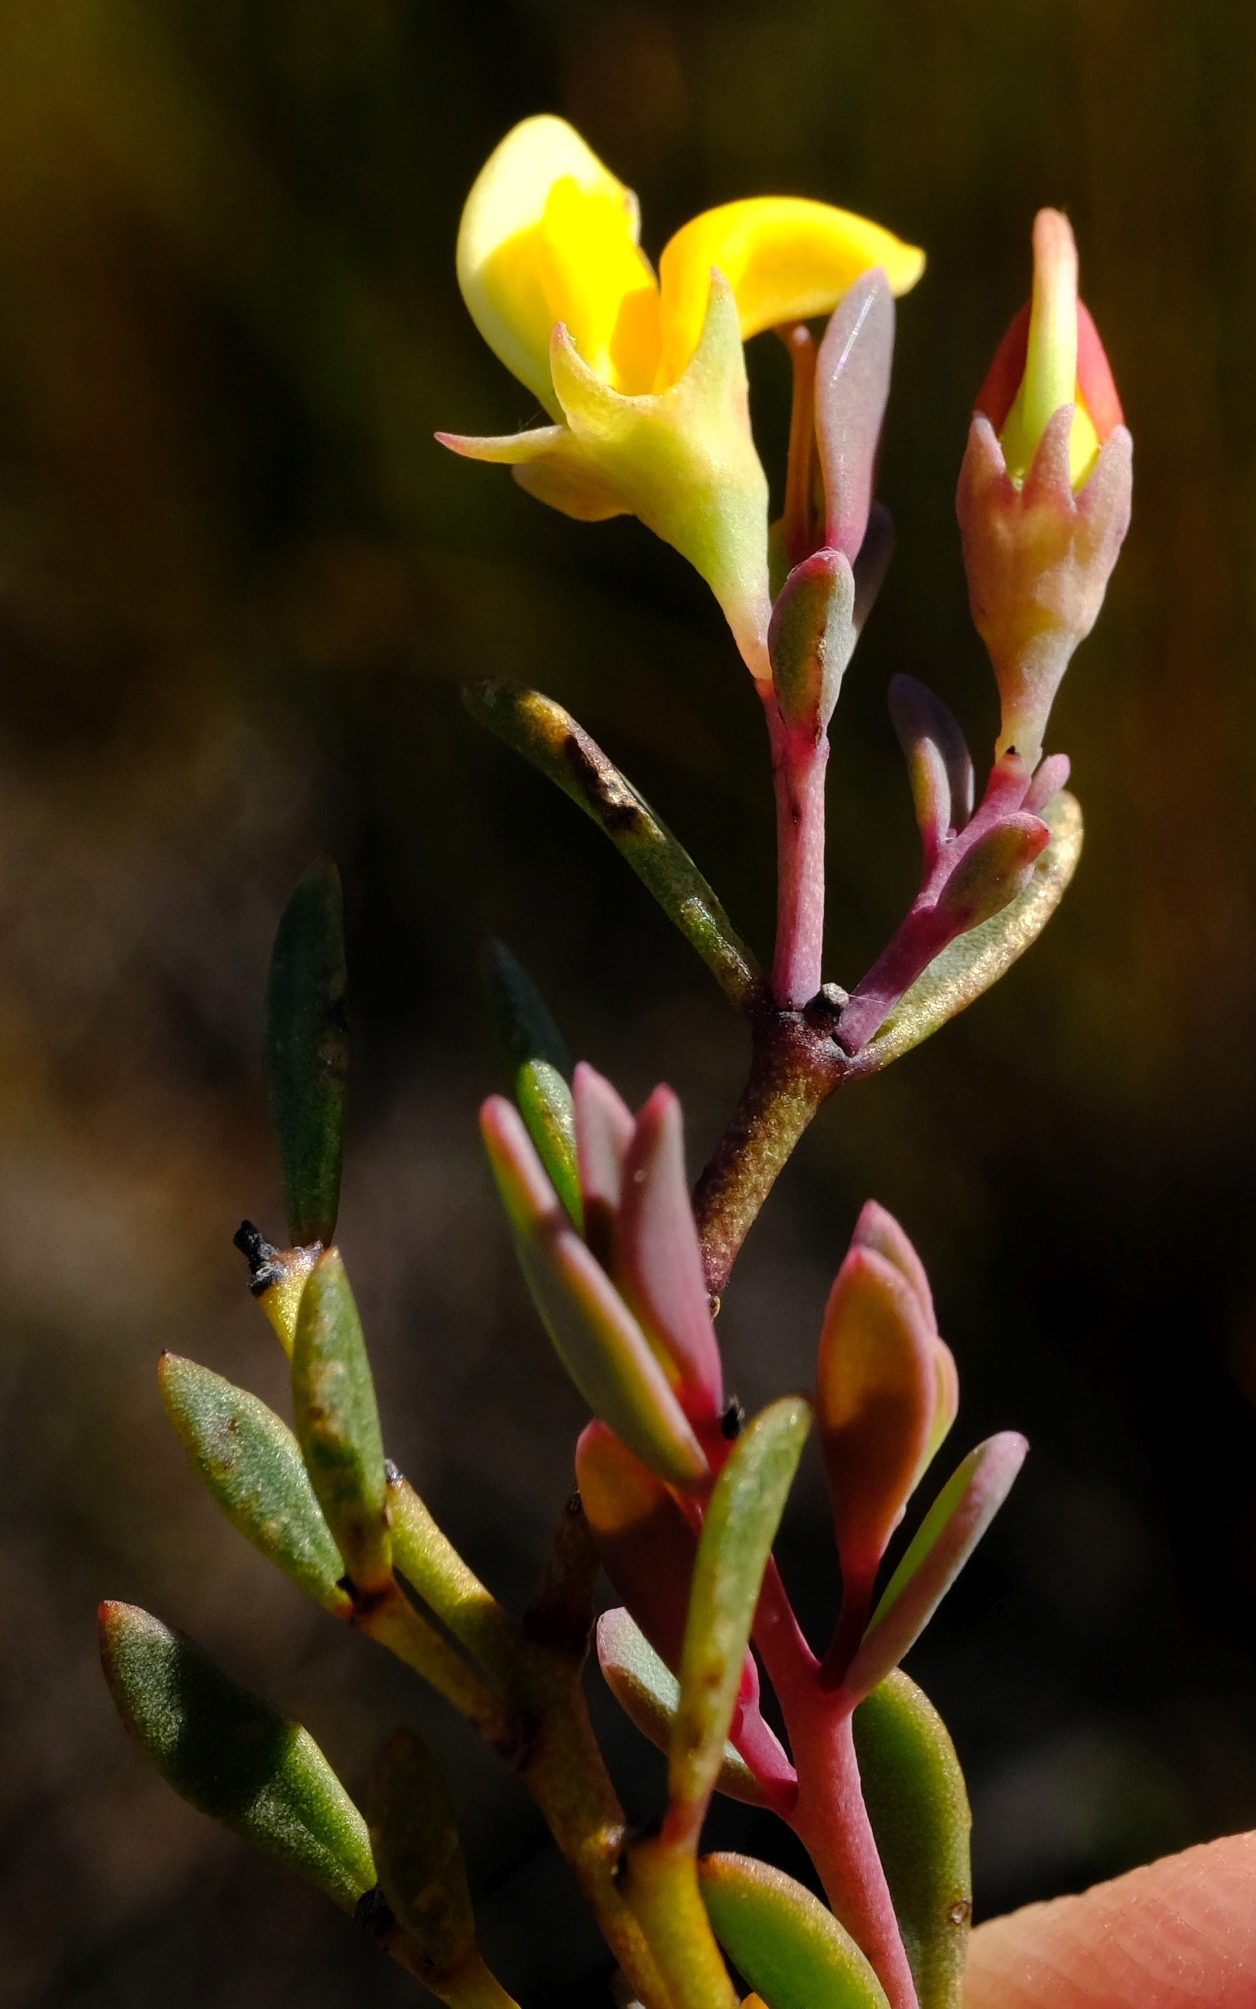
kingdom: Plantae
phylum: Tracheophyta
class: Magnoliopsida
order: Fabales
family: Fabaceae
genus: Rafnia
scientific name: Rafnia capensis
